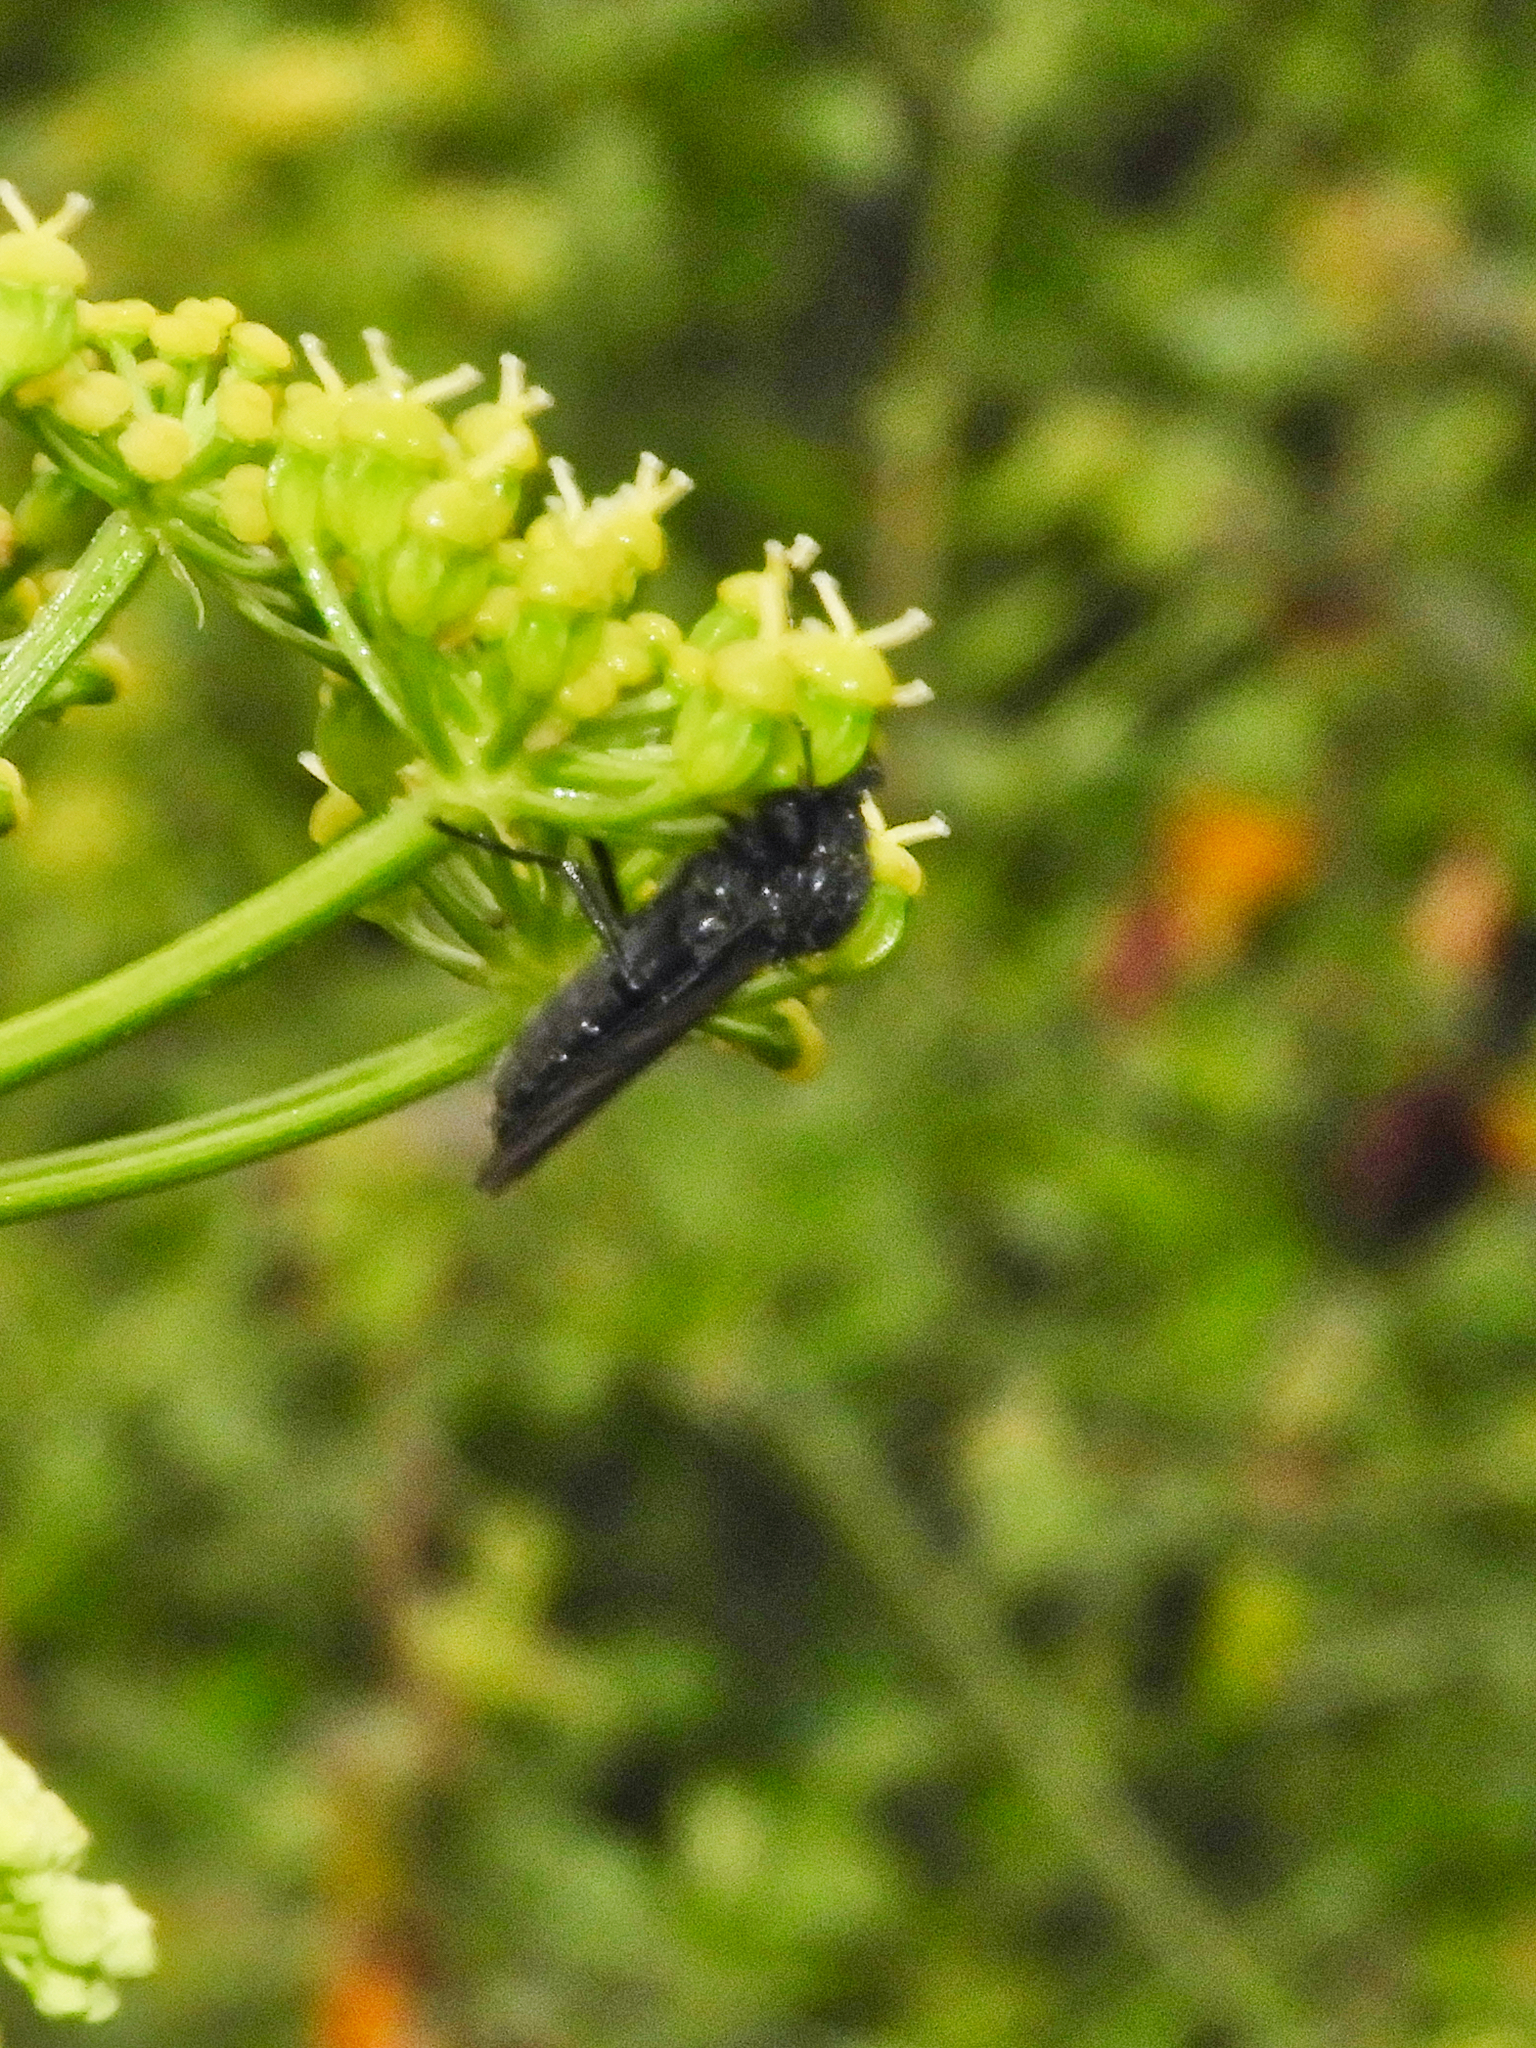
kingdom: Animalia
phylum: Arthropoda
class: Insecta
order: Diptera
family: Bibionidae
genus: Bibio
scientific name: Bibio marci
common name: St marks fly
